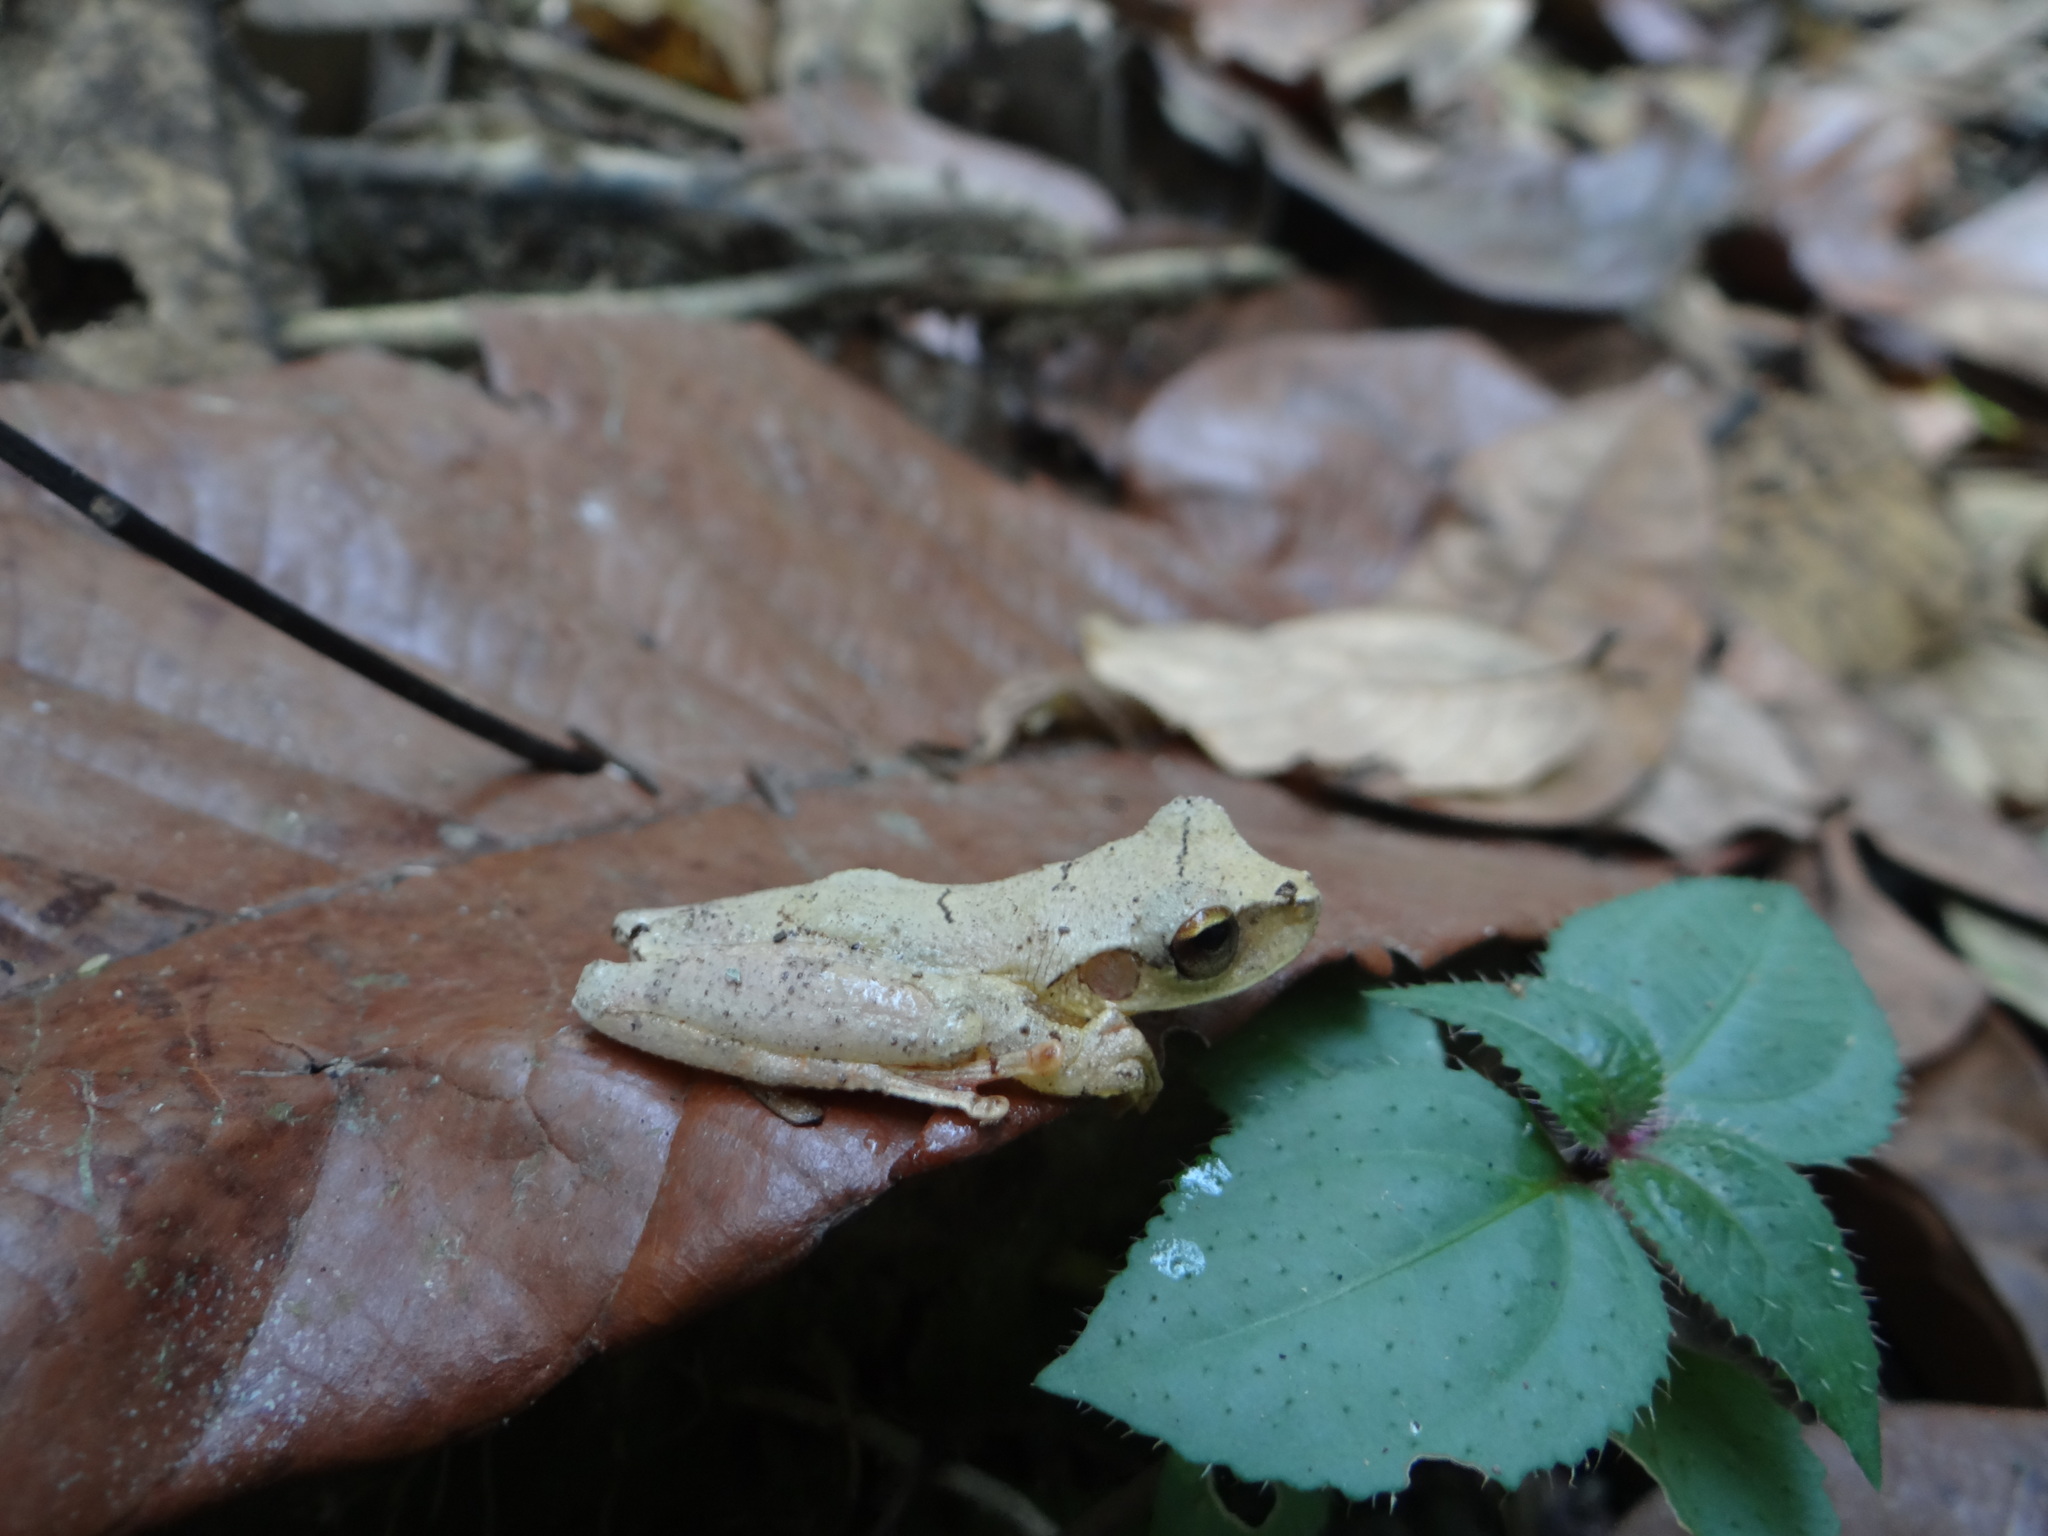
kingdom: Animalia
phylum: Chordata
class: Amphibia
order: Anura
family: Hylidae
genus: Osteocephalus
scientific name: Osteocephalus castaneicola
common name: Chestnut's slender-legged treefrog
